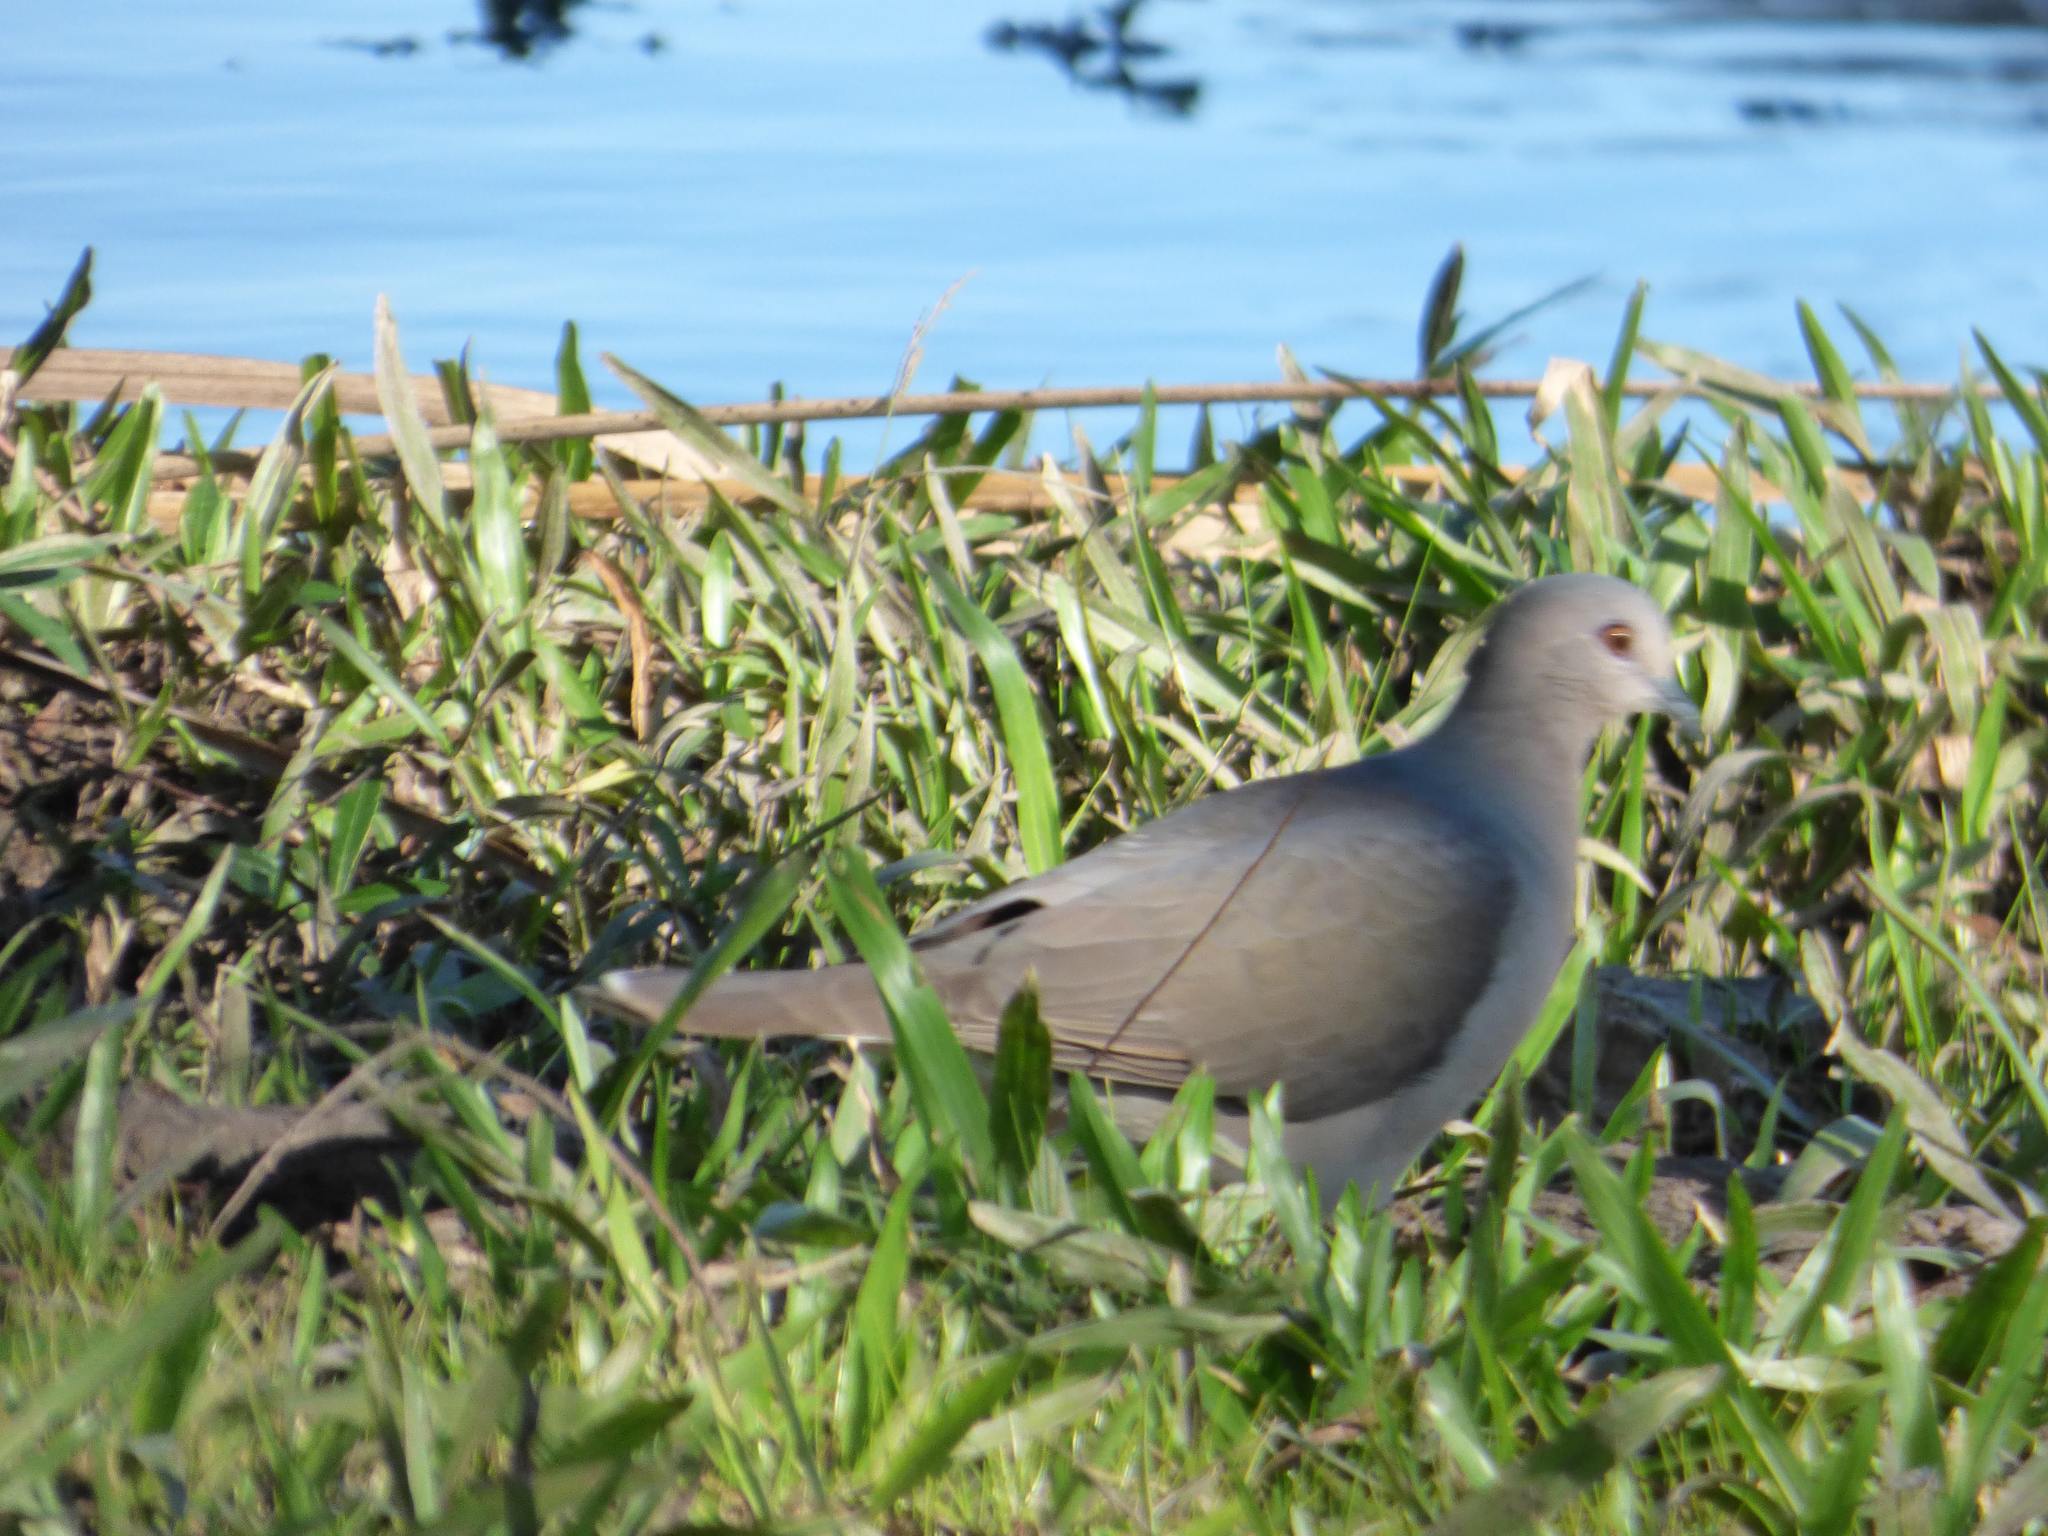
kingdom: Animalia
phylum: Chordata
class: Aves
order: Columbiformes
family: Columbidae
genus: Leptotila
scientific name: Leptotila verreauxi
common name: White-tipped dove
